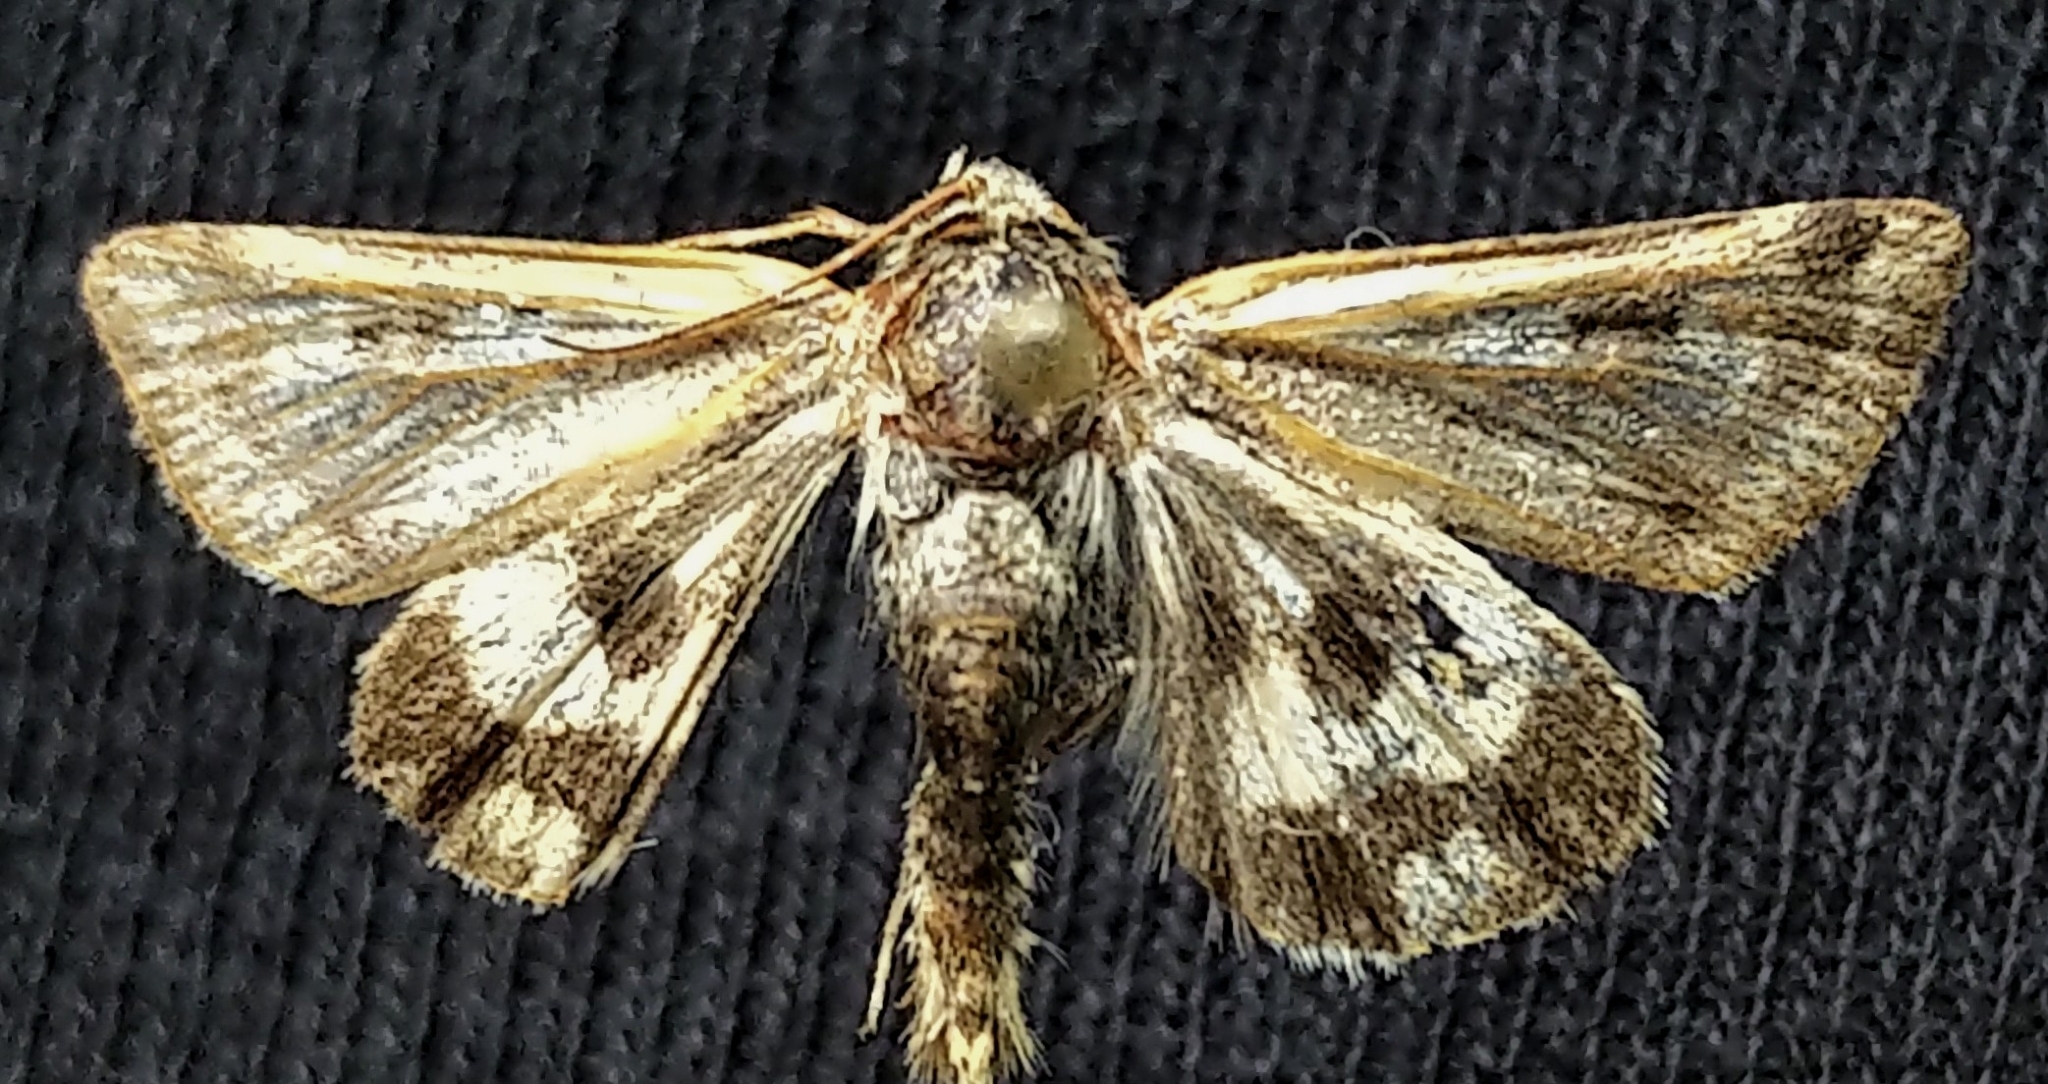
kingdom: Animalia
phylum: Arthropoda
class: Insecta
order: Lepidoptera
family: Noctuidae
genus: Heliothis
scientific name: Heliothis ononis
